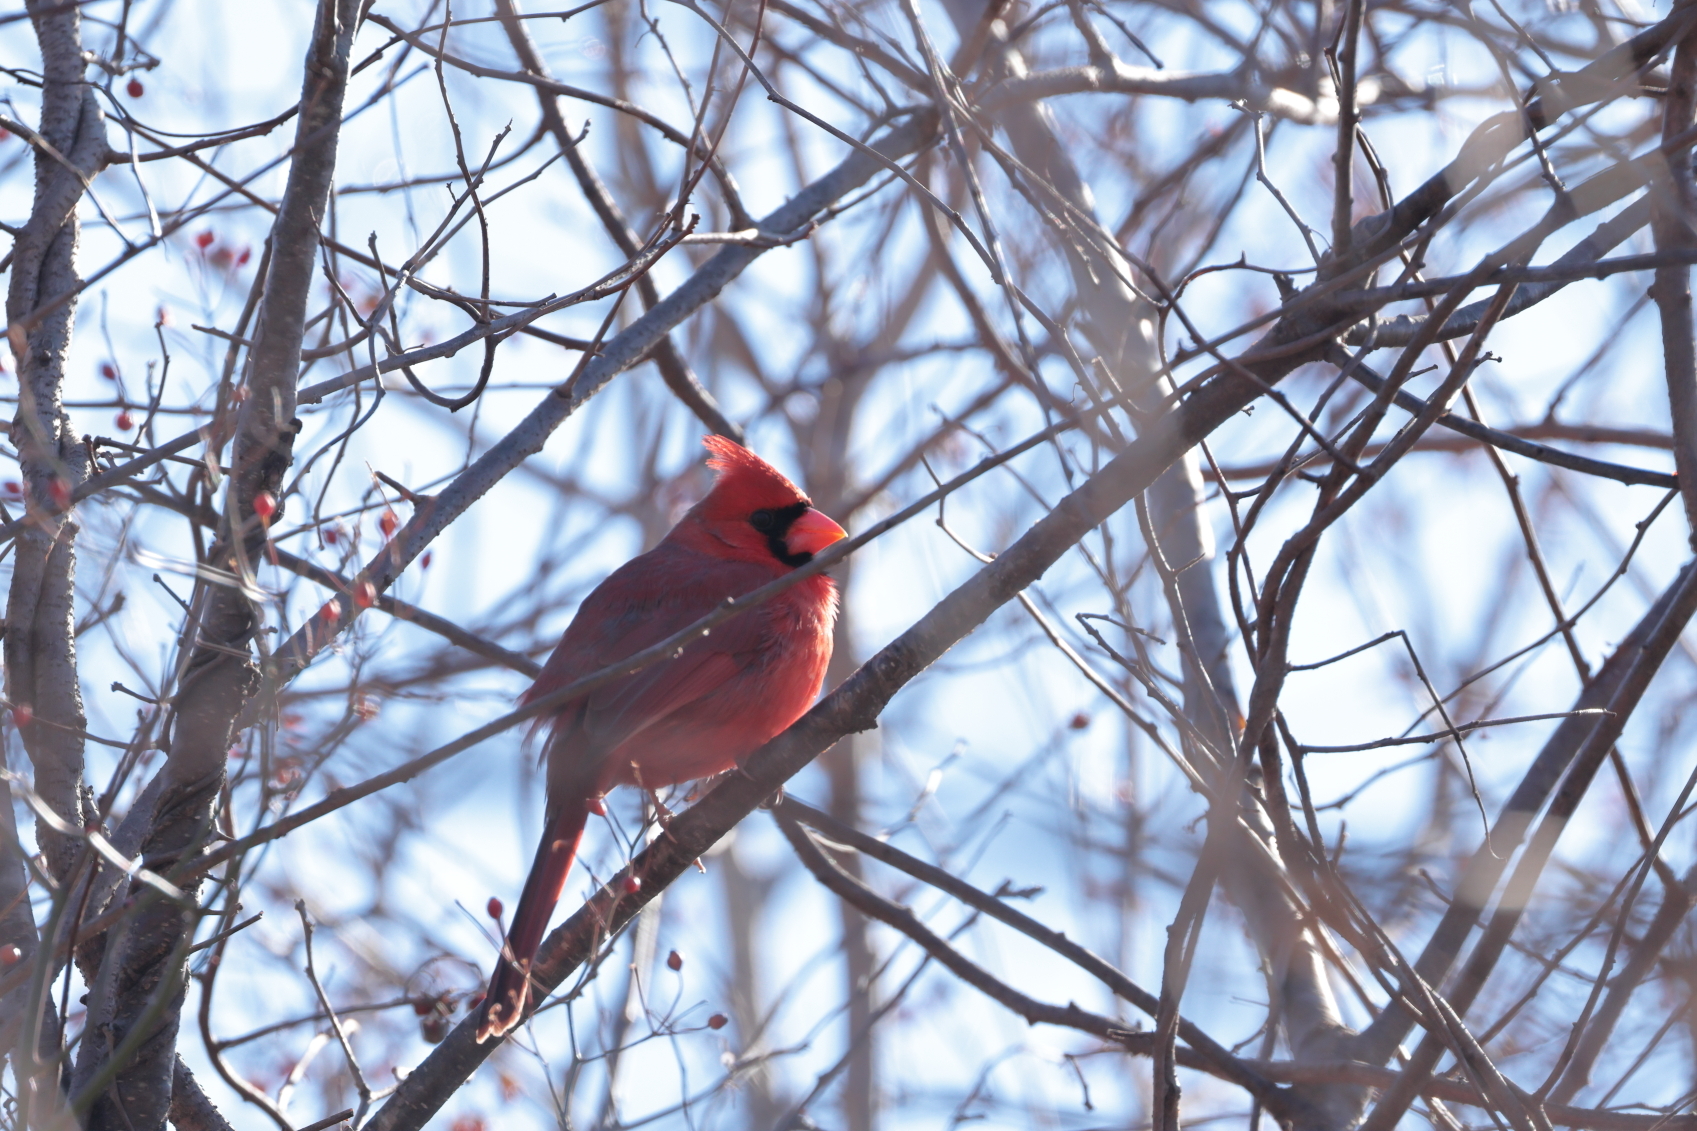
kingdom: Animalia
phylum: Chordata
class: Aves
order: Passeriformes
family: Cardinalidae
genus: Cardinalis
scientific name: Cardinalis cardinalis
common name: Northern cardinal
